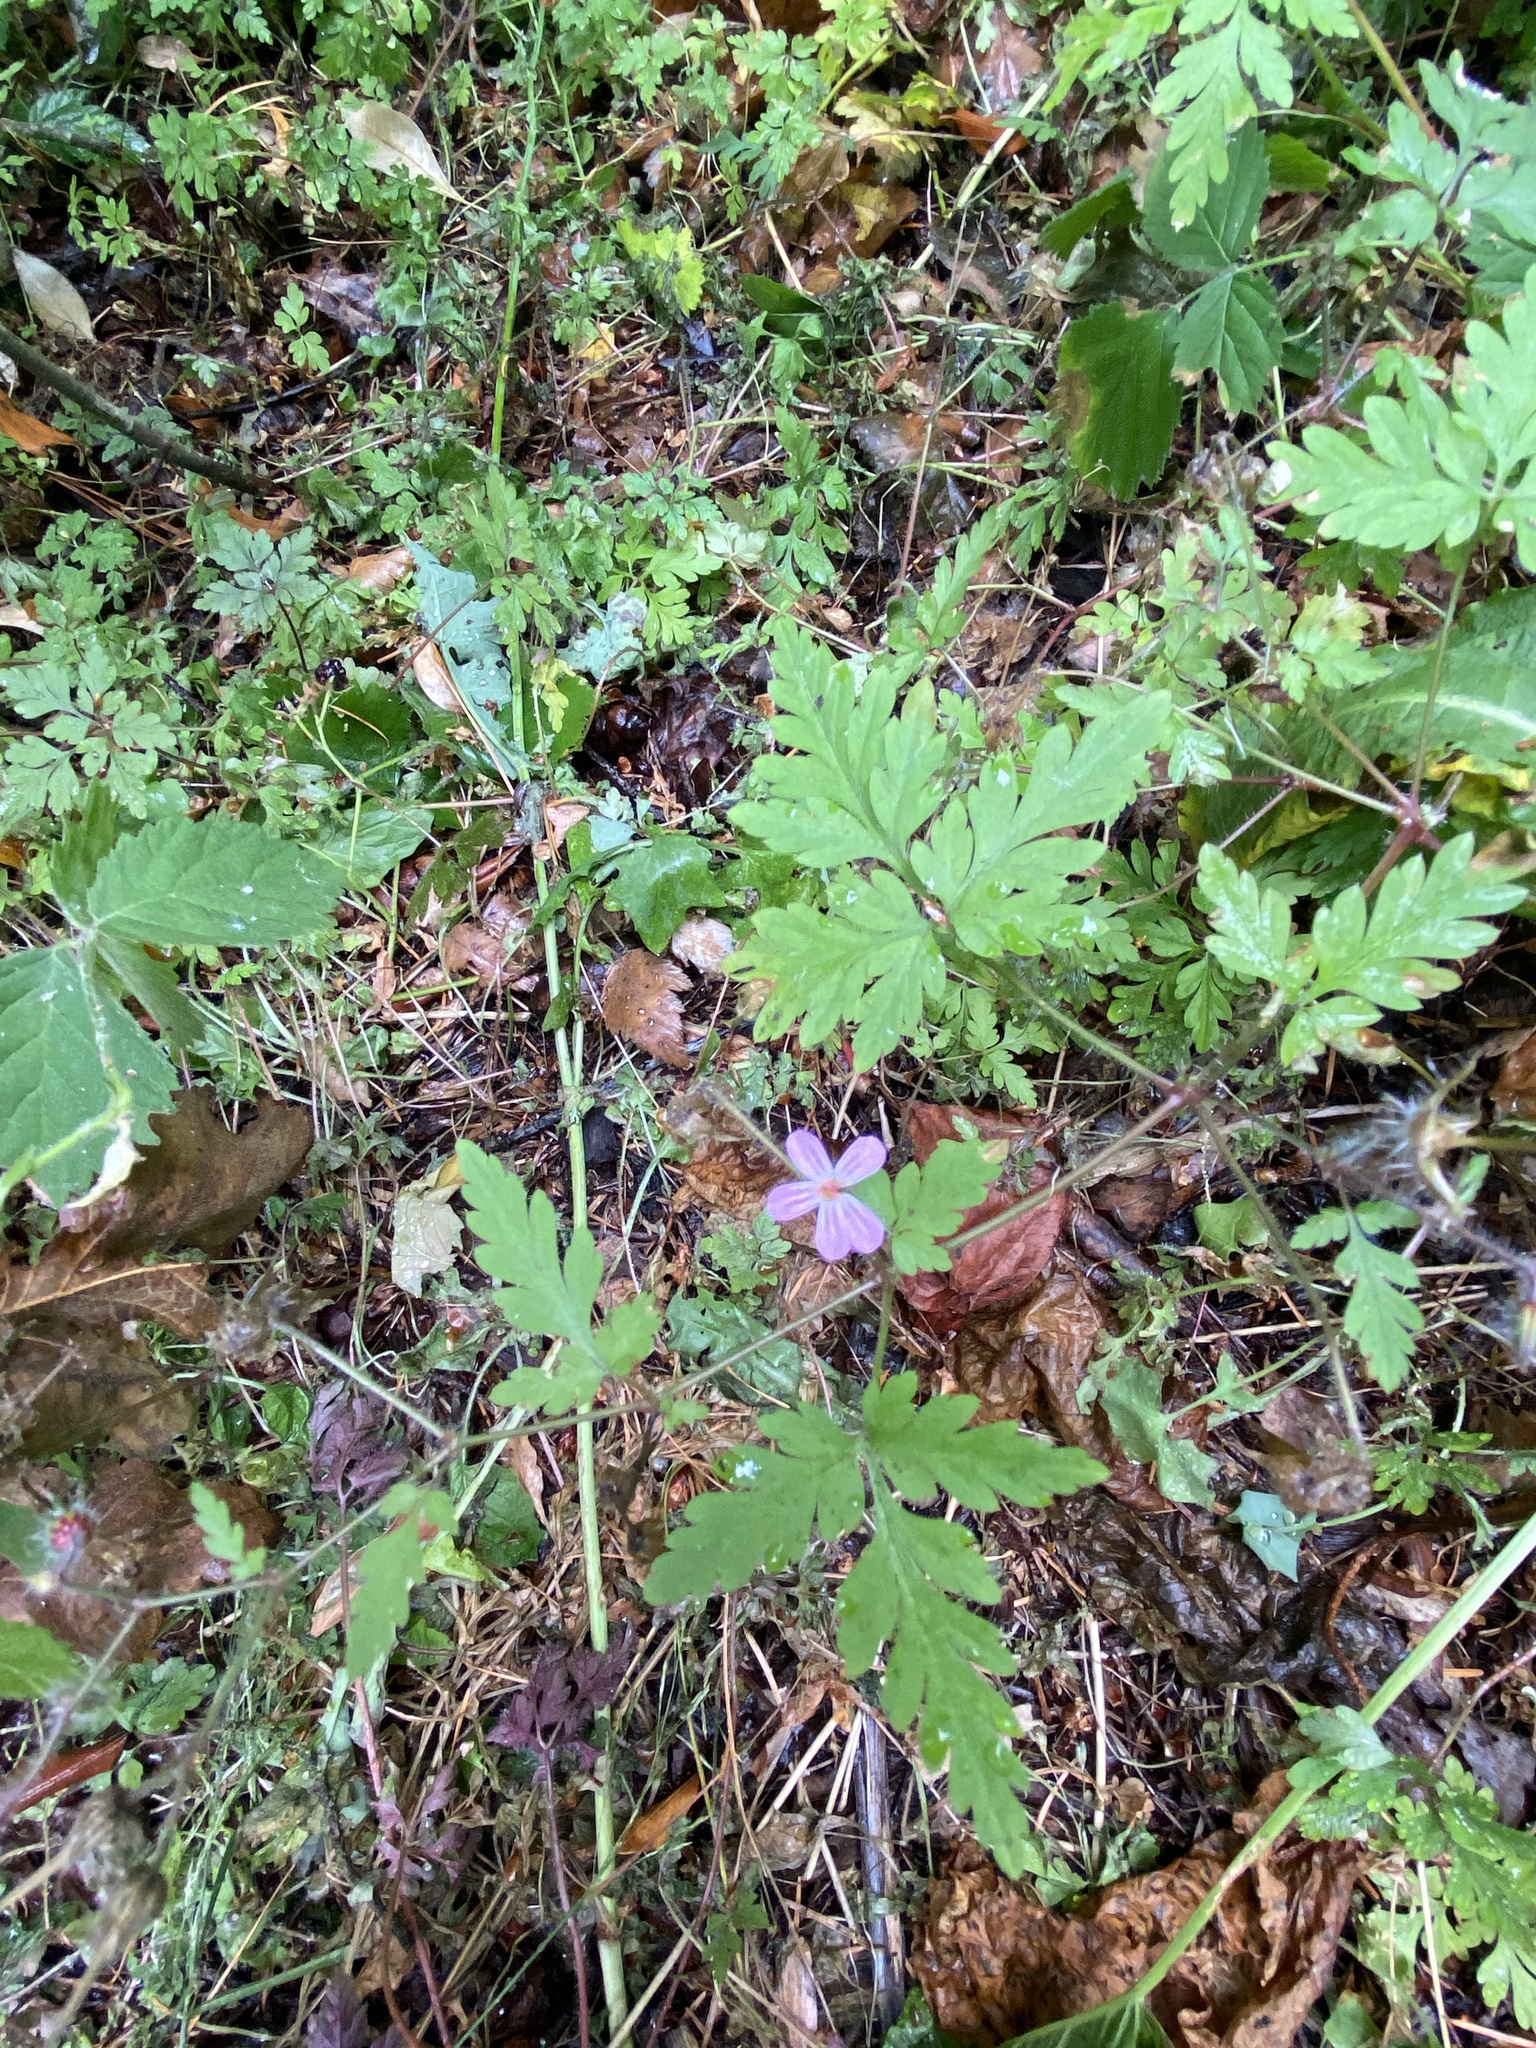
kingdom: Plantae
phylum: Tracheophyta
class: Magnoliopsida
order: Geraniales
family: Geraniaceae
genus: Geranium
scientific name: Geranium robertianum
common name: Herb-robert
